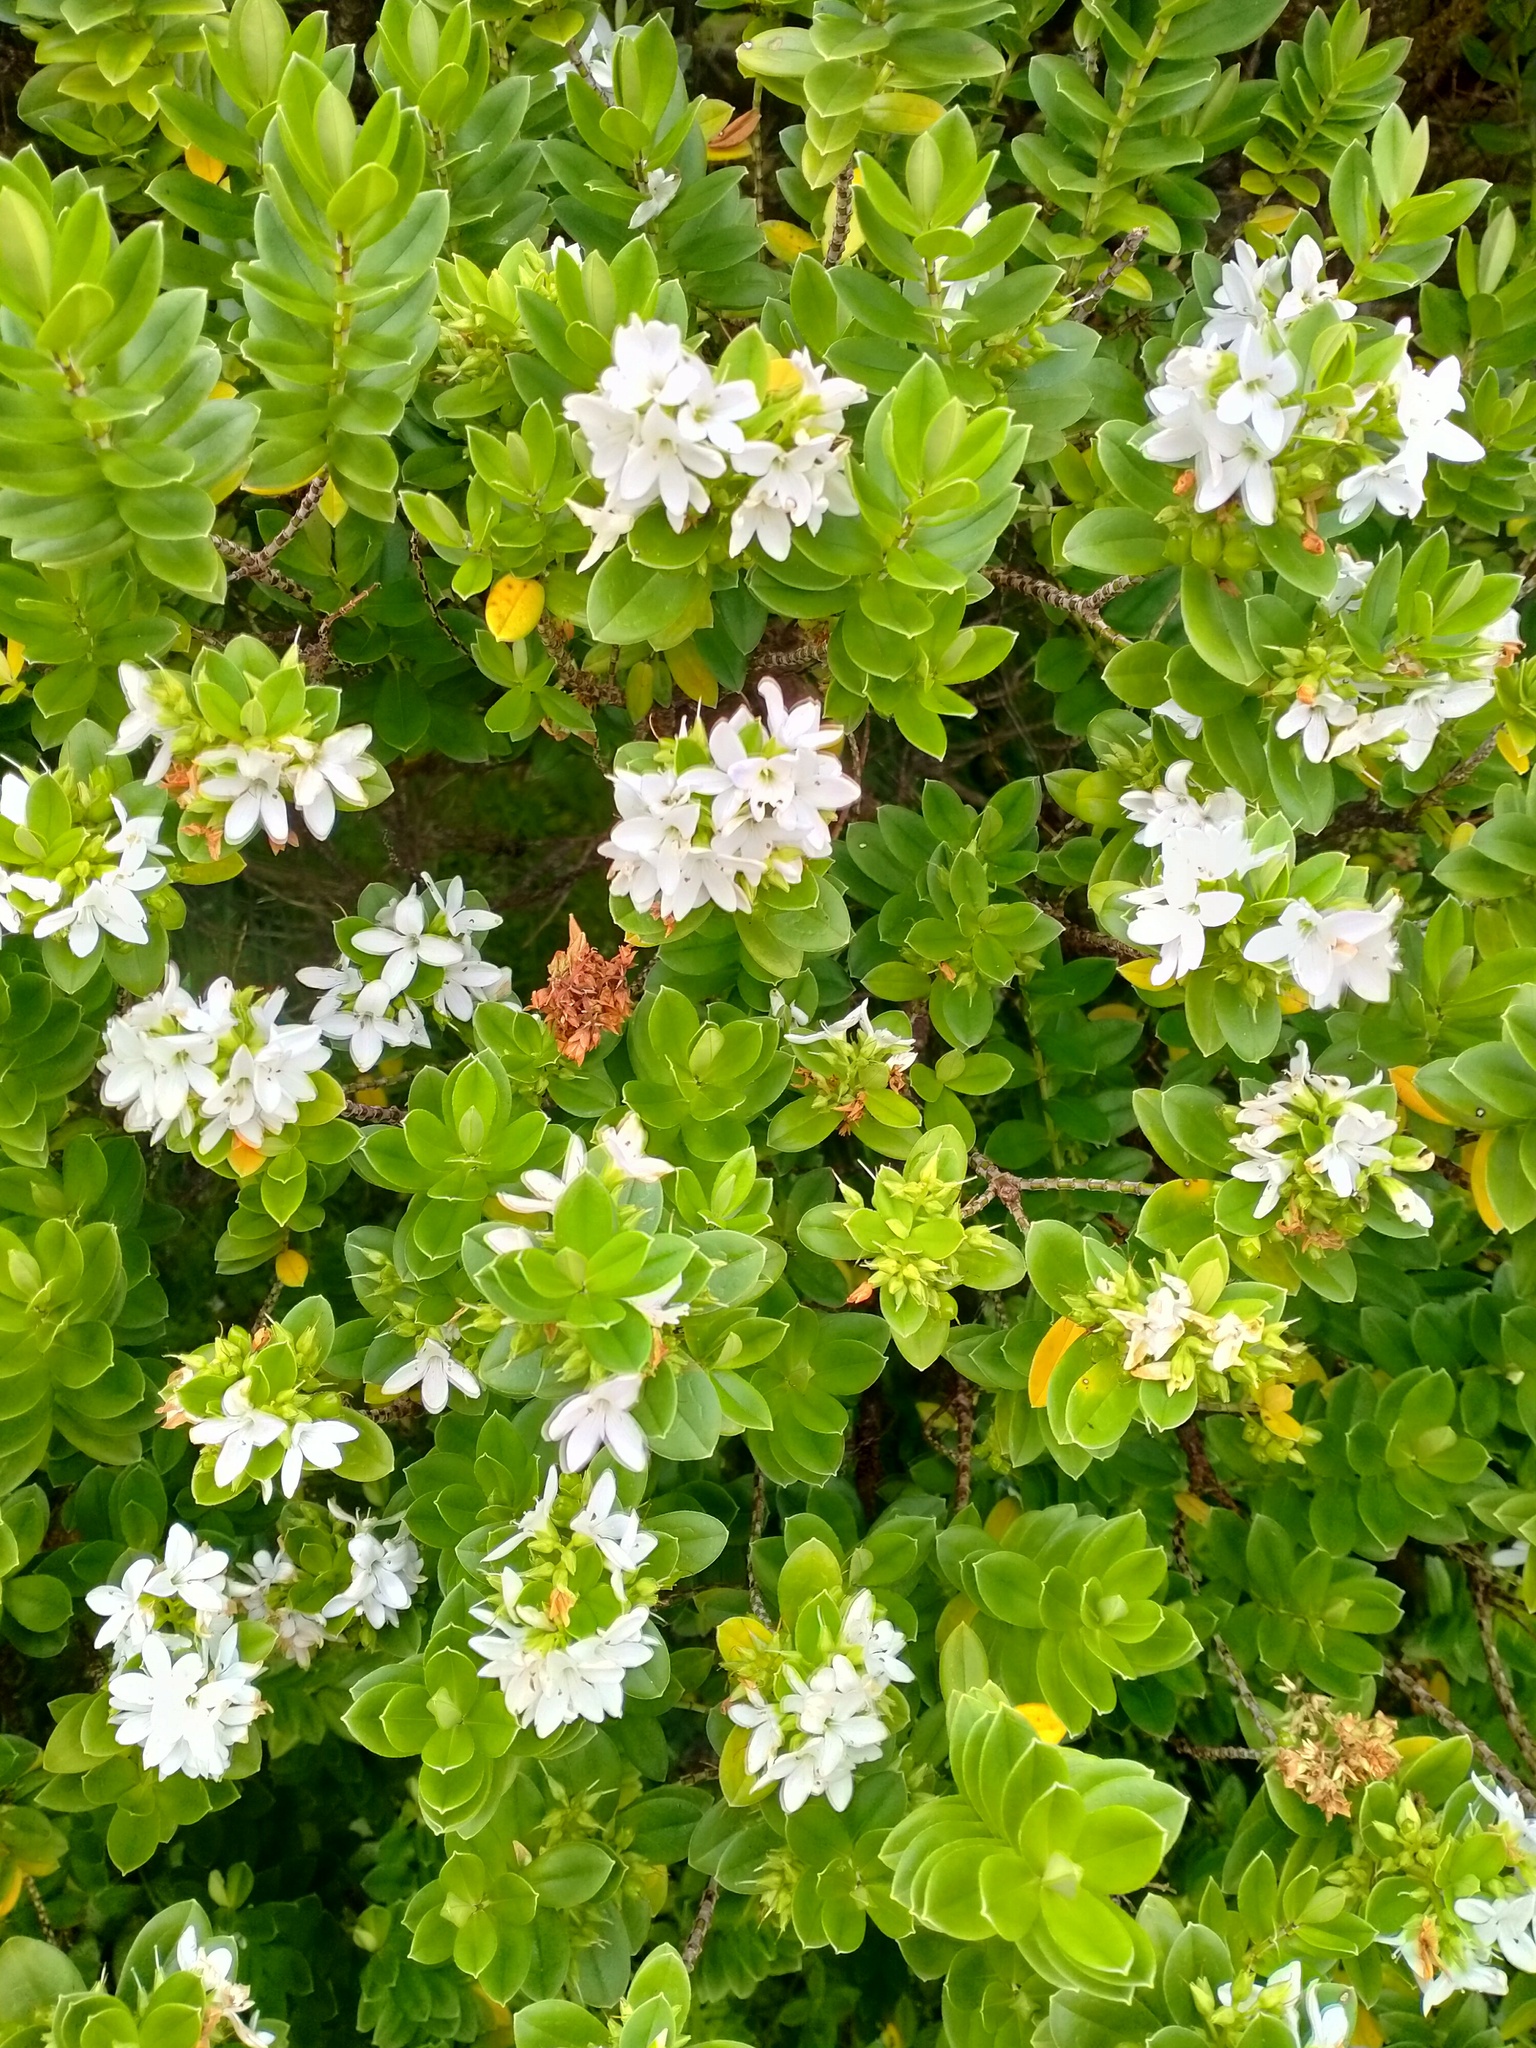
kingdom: Plantae
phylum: Tracheophyta
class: Magnoliopsida
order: Lamiales
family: Plantaginaceae
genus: Veronica
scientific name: Veronica elliptica
